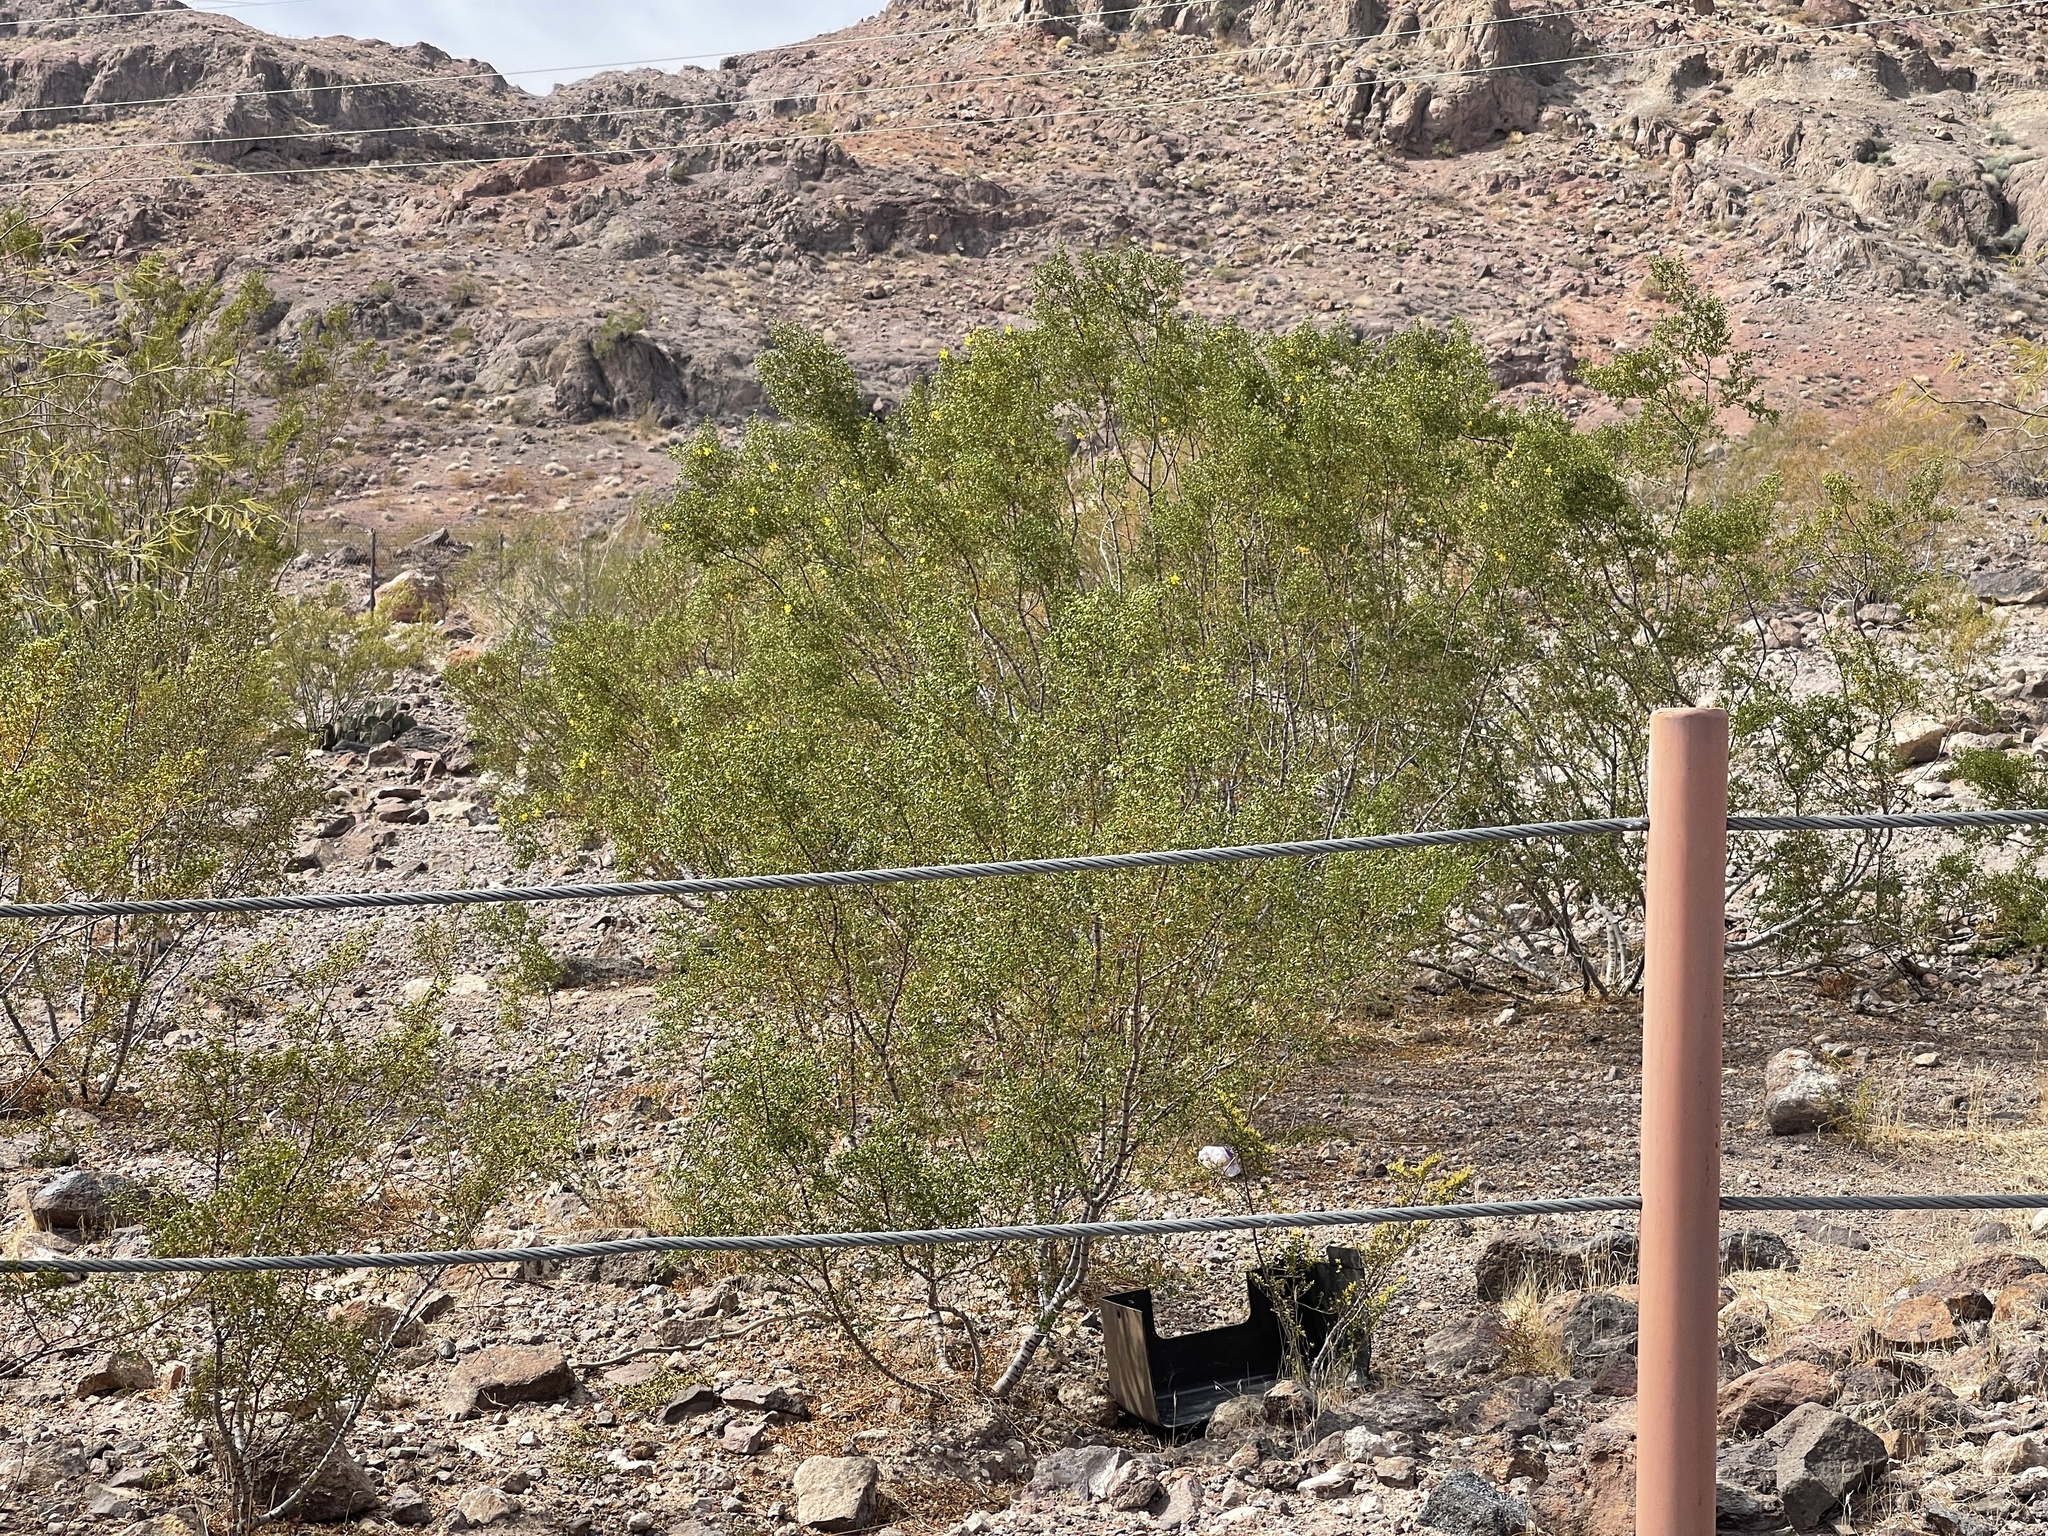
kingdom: Plantae
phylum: Tracheophyta
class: Magnoliopsida
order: Zygophyllales
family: Zygophyllaceae
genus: Larrea
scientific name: Larrea tridentata
